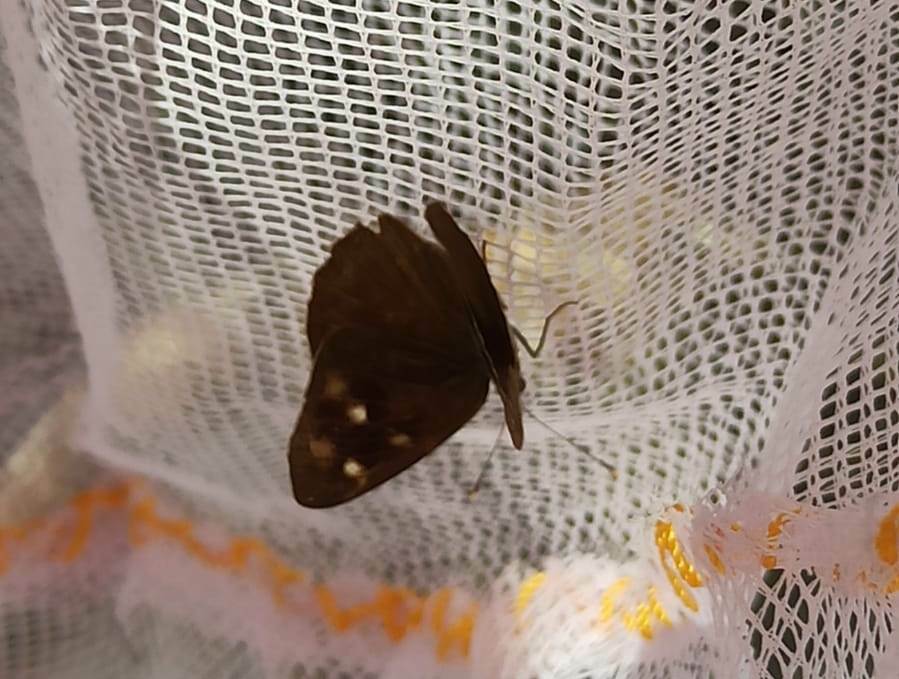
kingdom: Animalia
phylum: Arthropoda
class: Insecta
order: Lepidoptera
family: Nymphalidae
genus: Eunica
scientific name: Eunica monima
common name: Dingy purplewing
